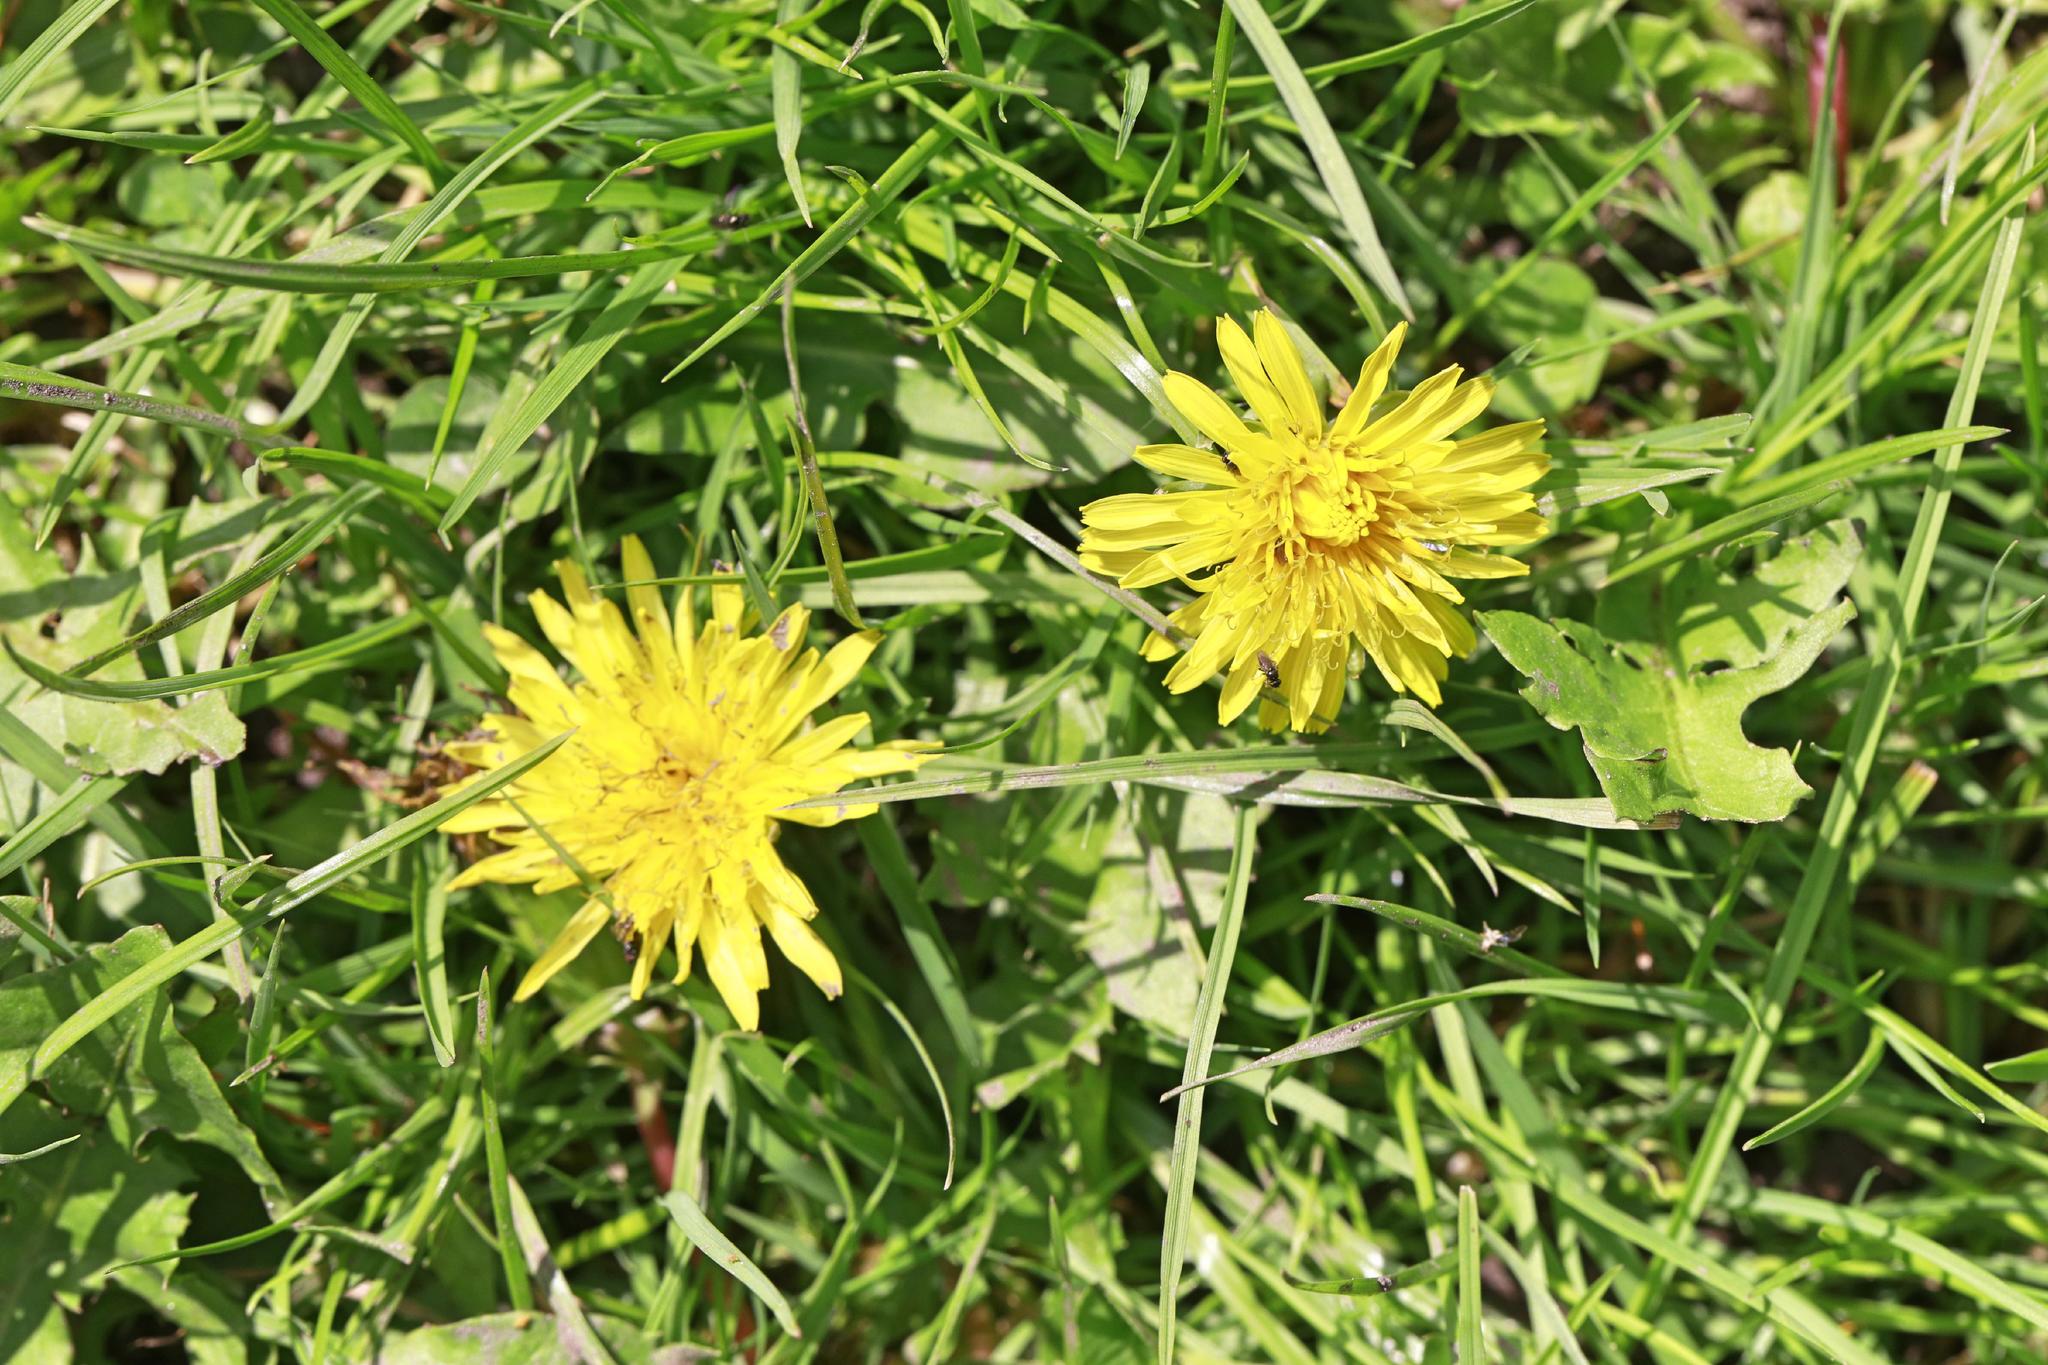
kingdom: Plantae
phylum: Tracheophyta
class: Magnoliopsida
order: Asterales
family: Asteraceae
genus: Taraxacum
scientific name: Taraxacum officinale
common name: Common dandelion
